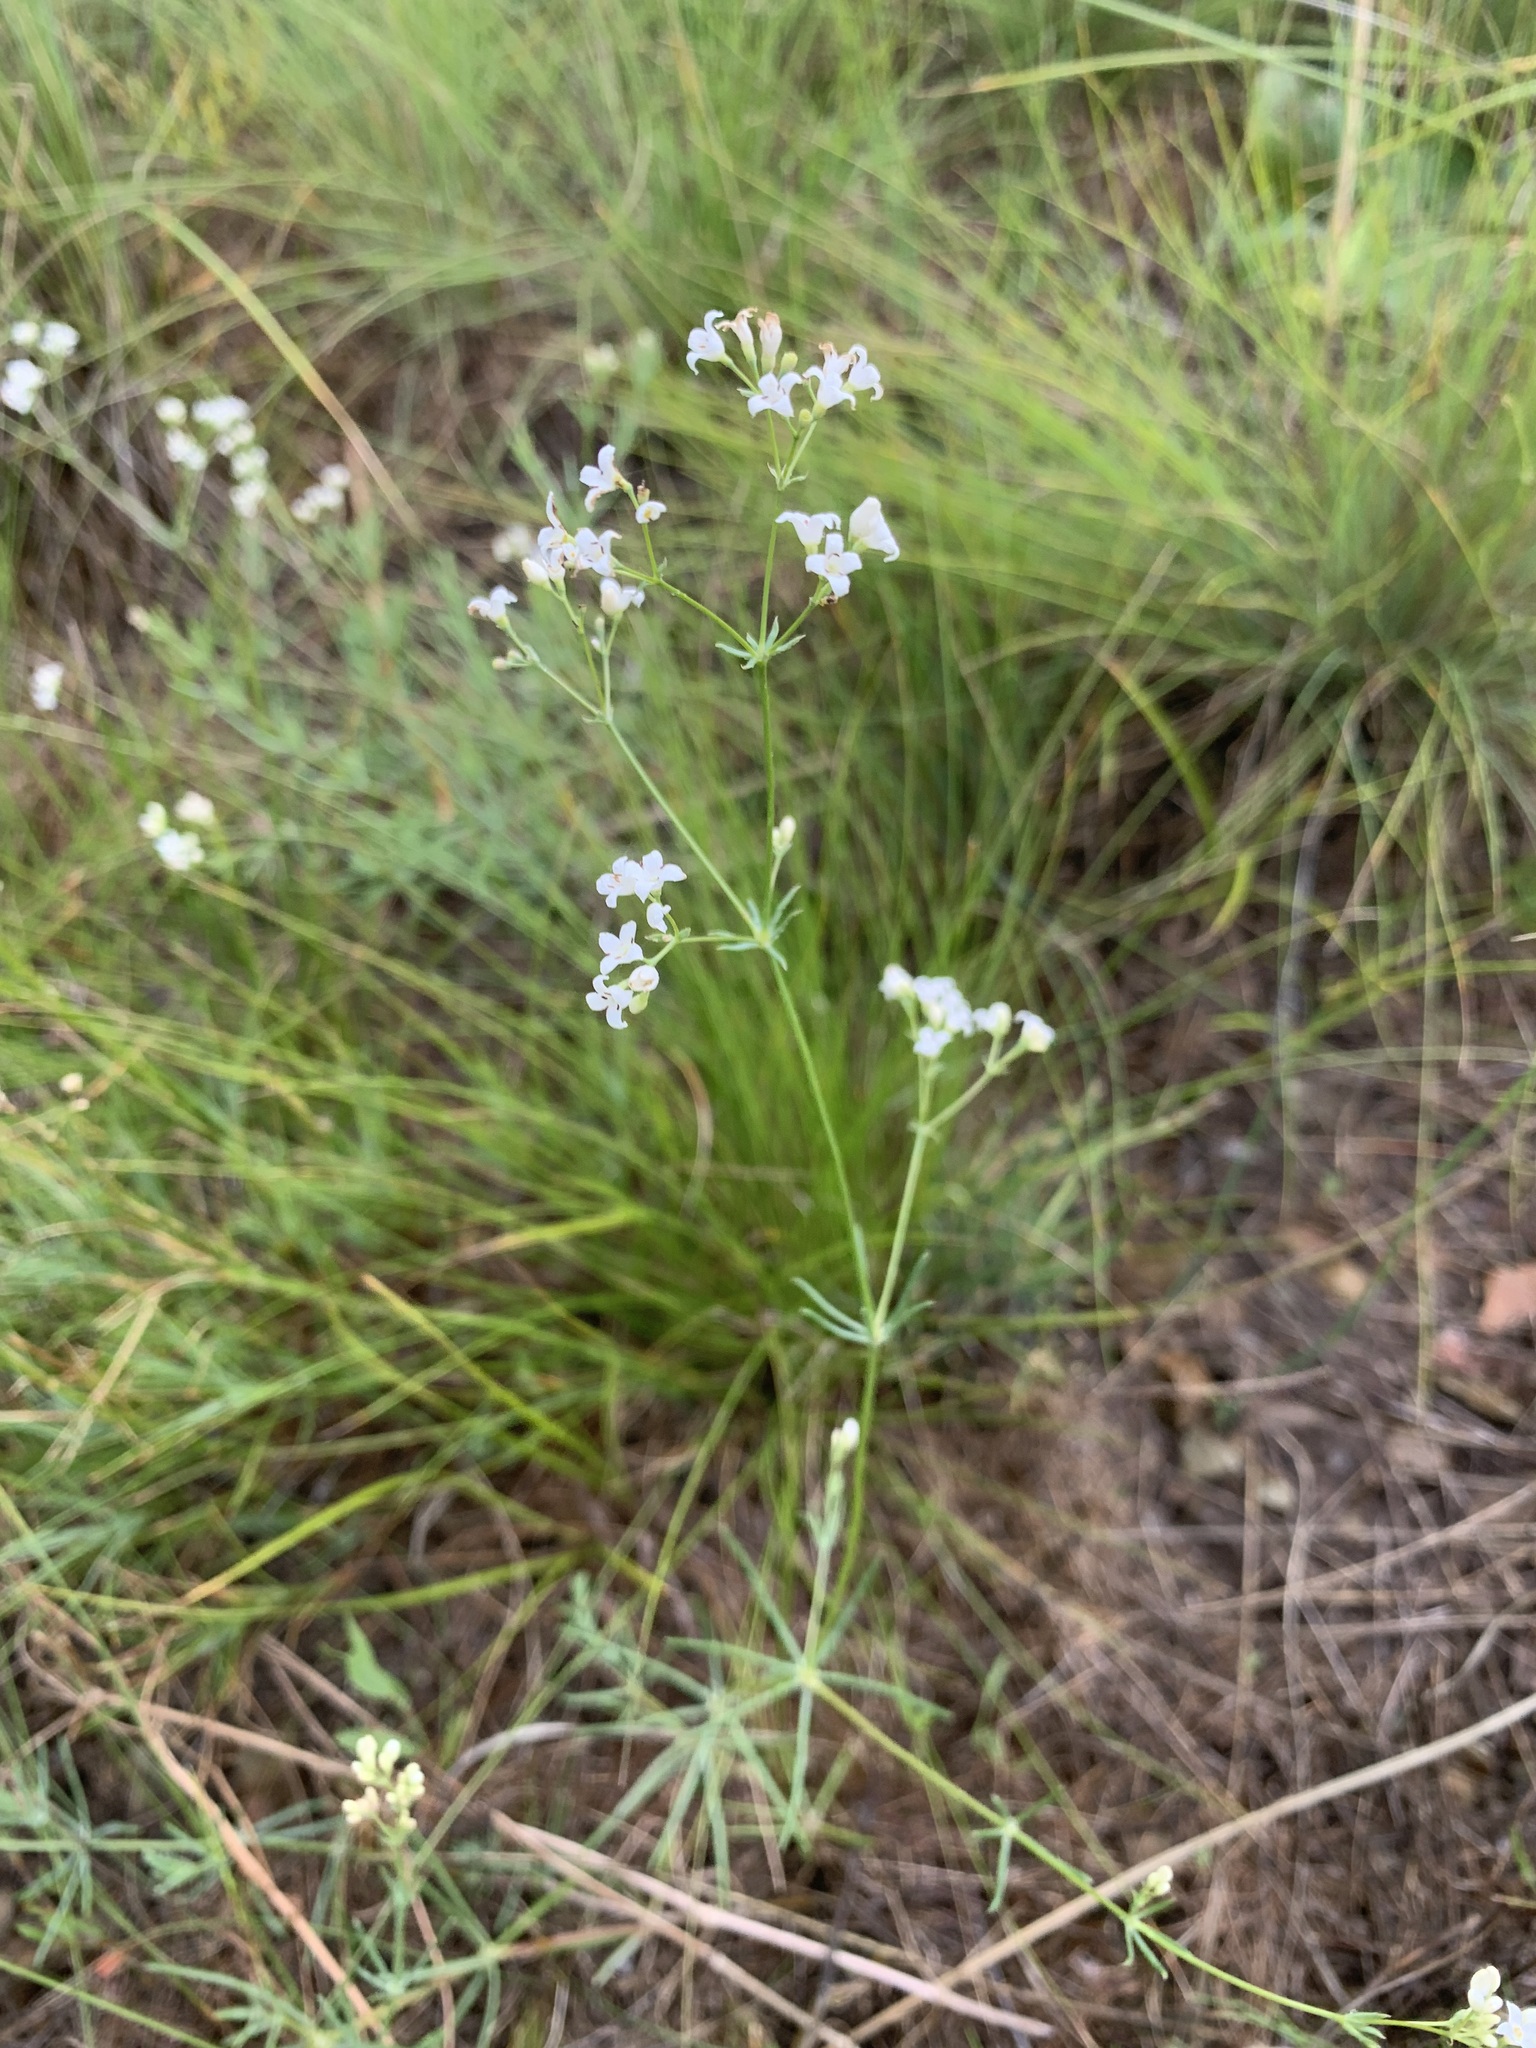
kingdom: Plantae
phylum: Tracheophyta
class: Magnoliopsida
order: Gentianales
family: Rubiaceae
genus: Galium
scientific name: Galium hexanarium
